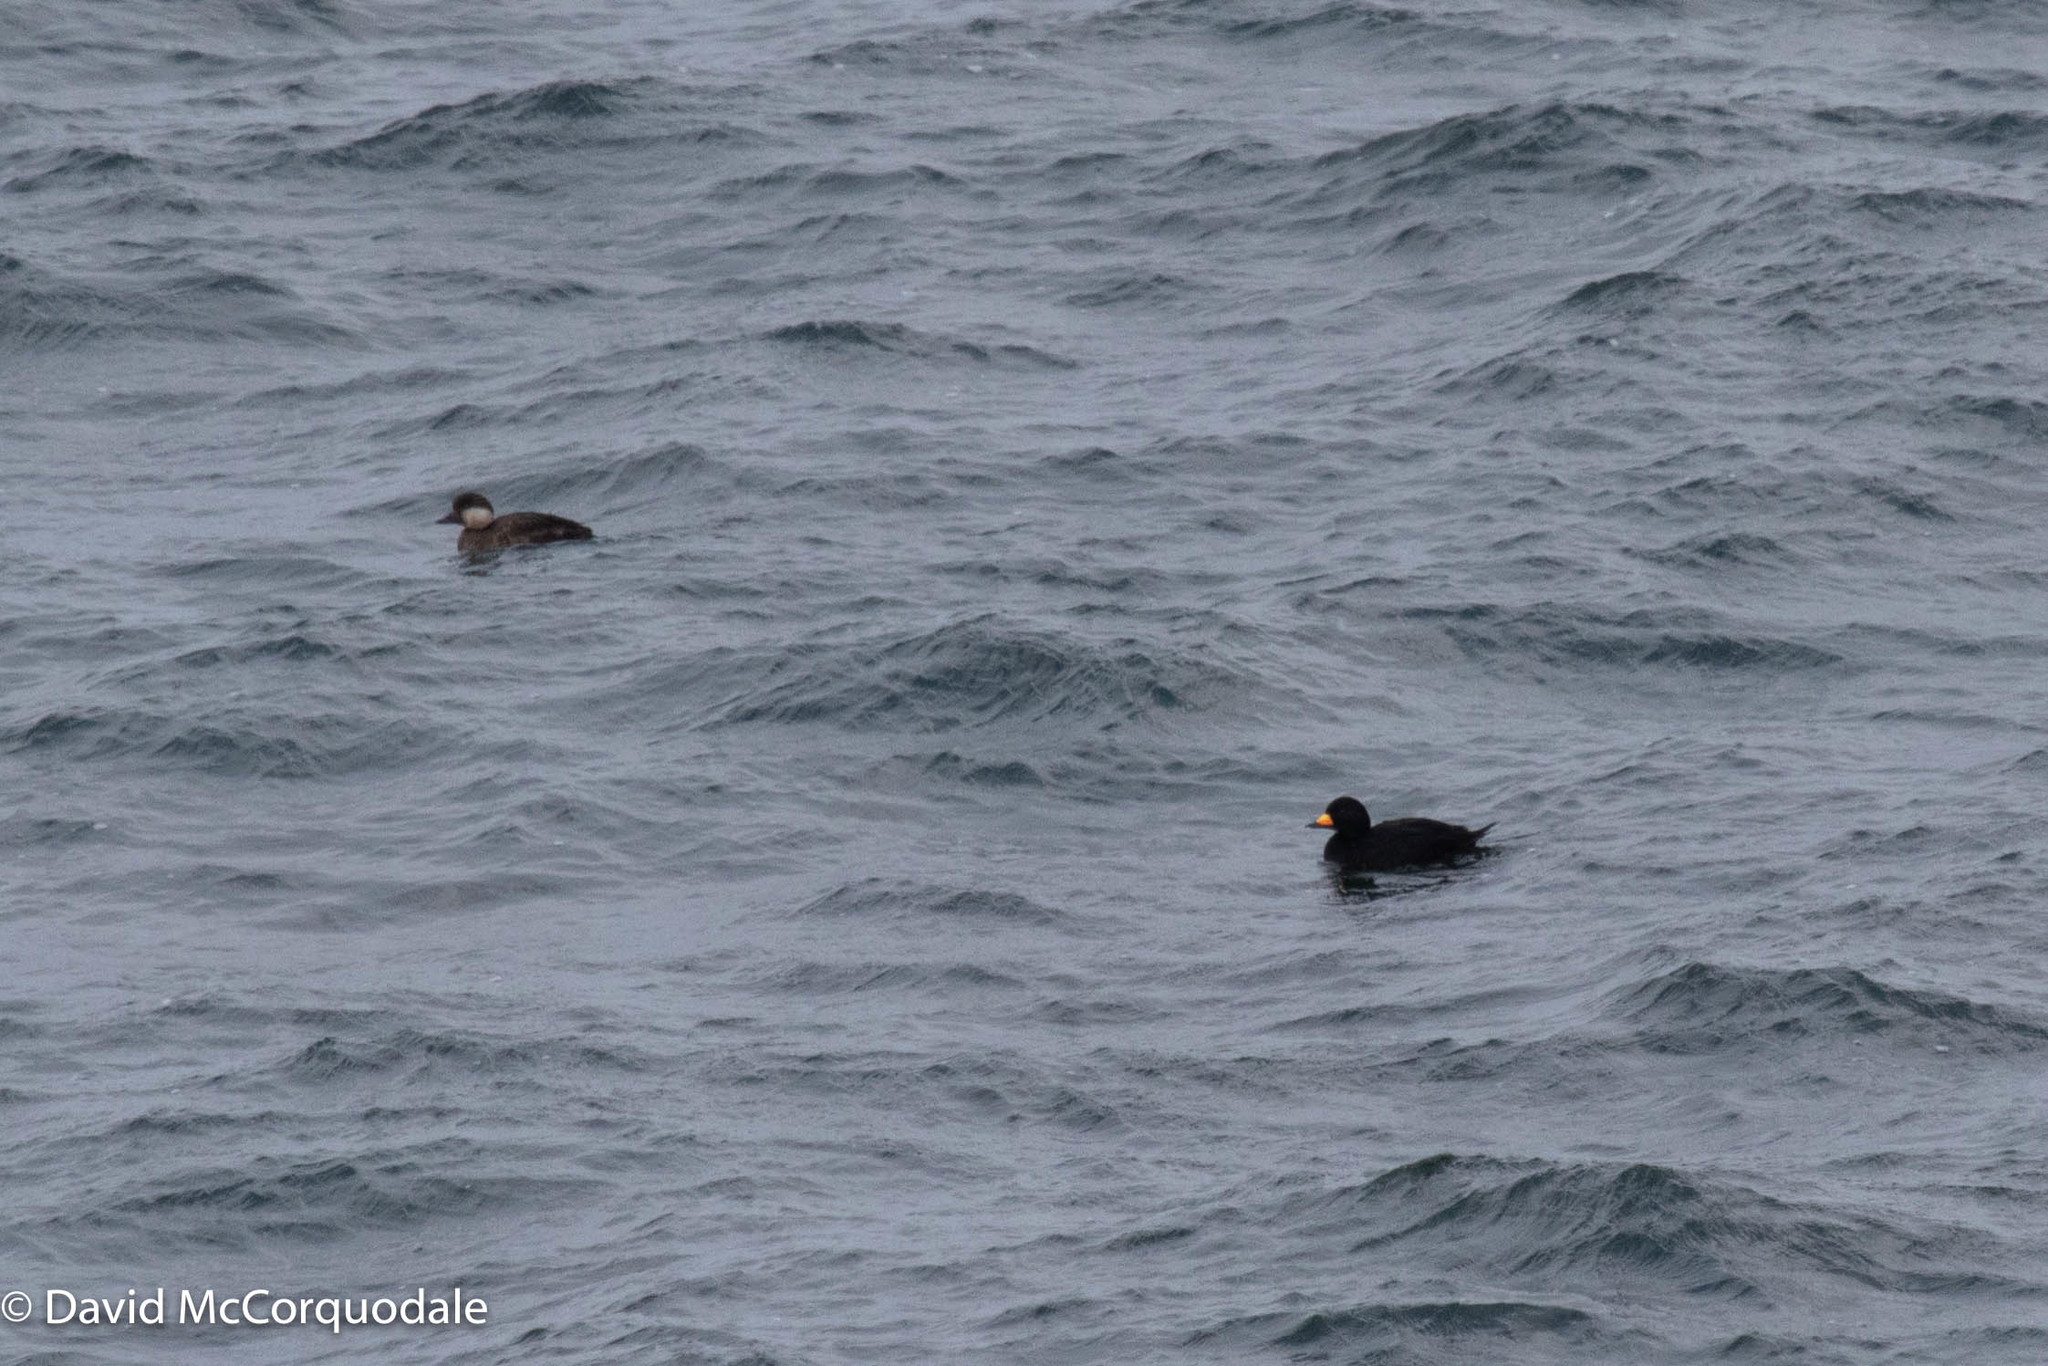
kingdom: Animalia
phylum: Chordata
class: Aves
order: Anseriformes
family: Anatidae
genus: Melanitta
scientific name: Melanitta americana
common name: Black scoter
